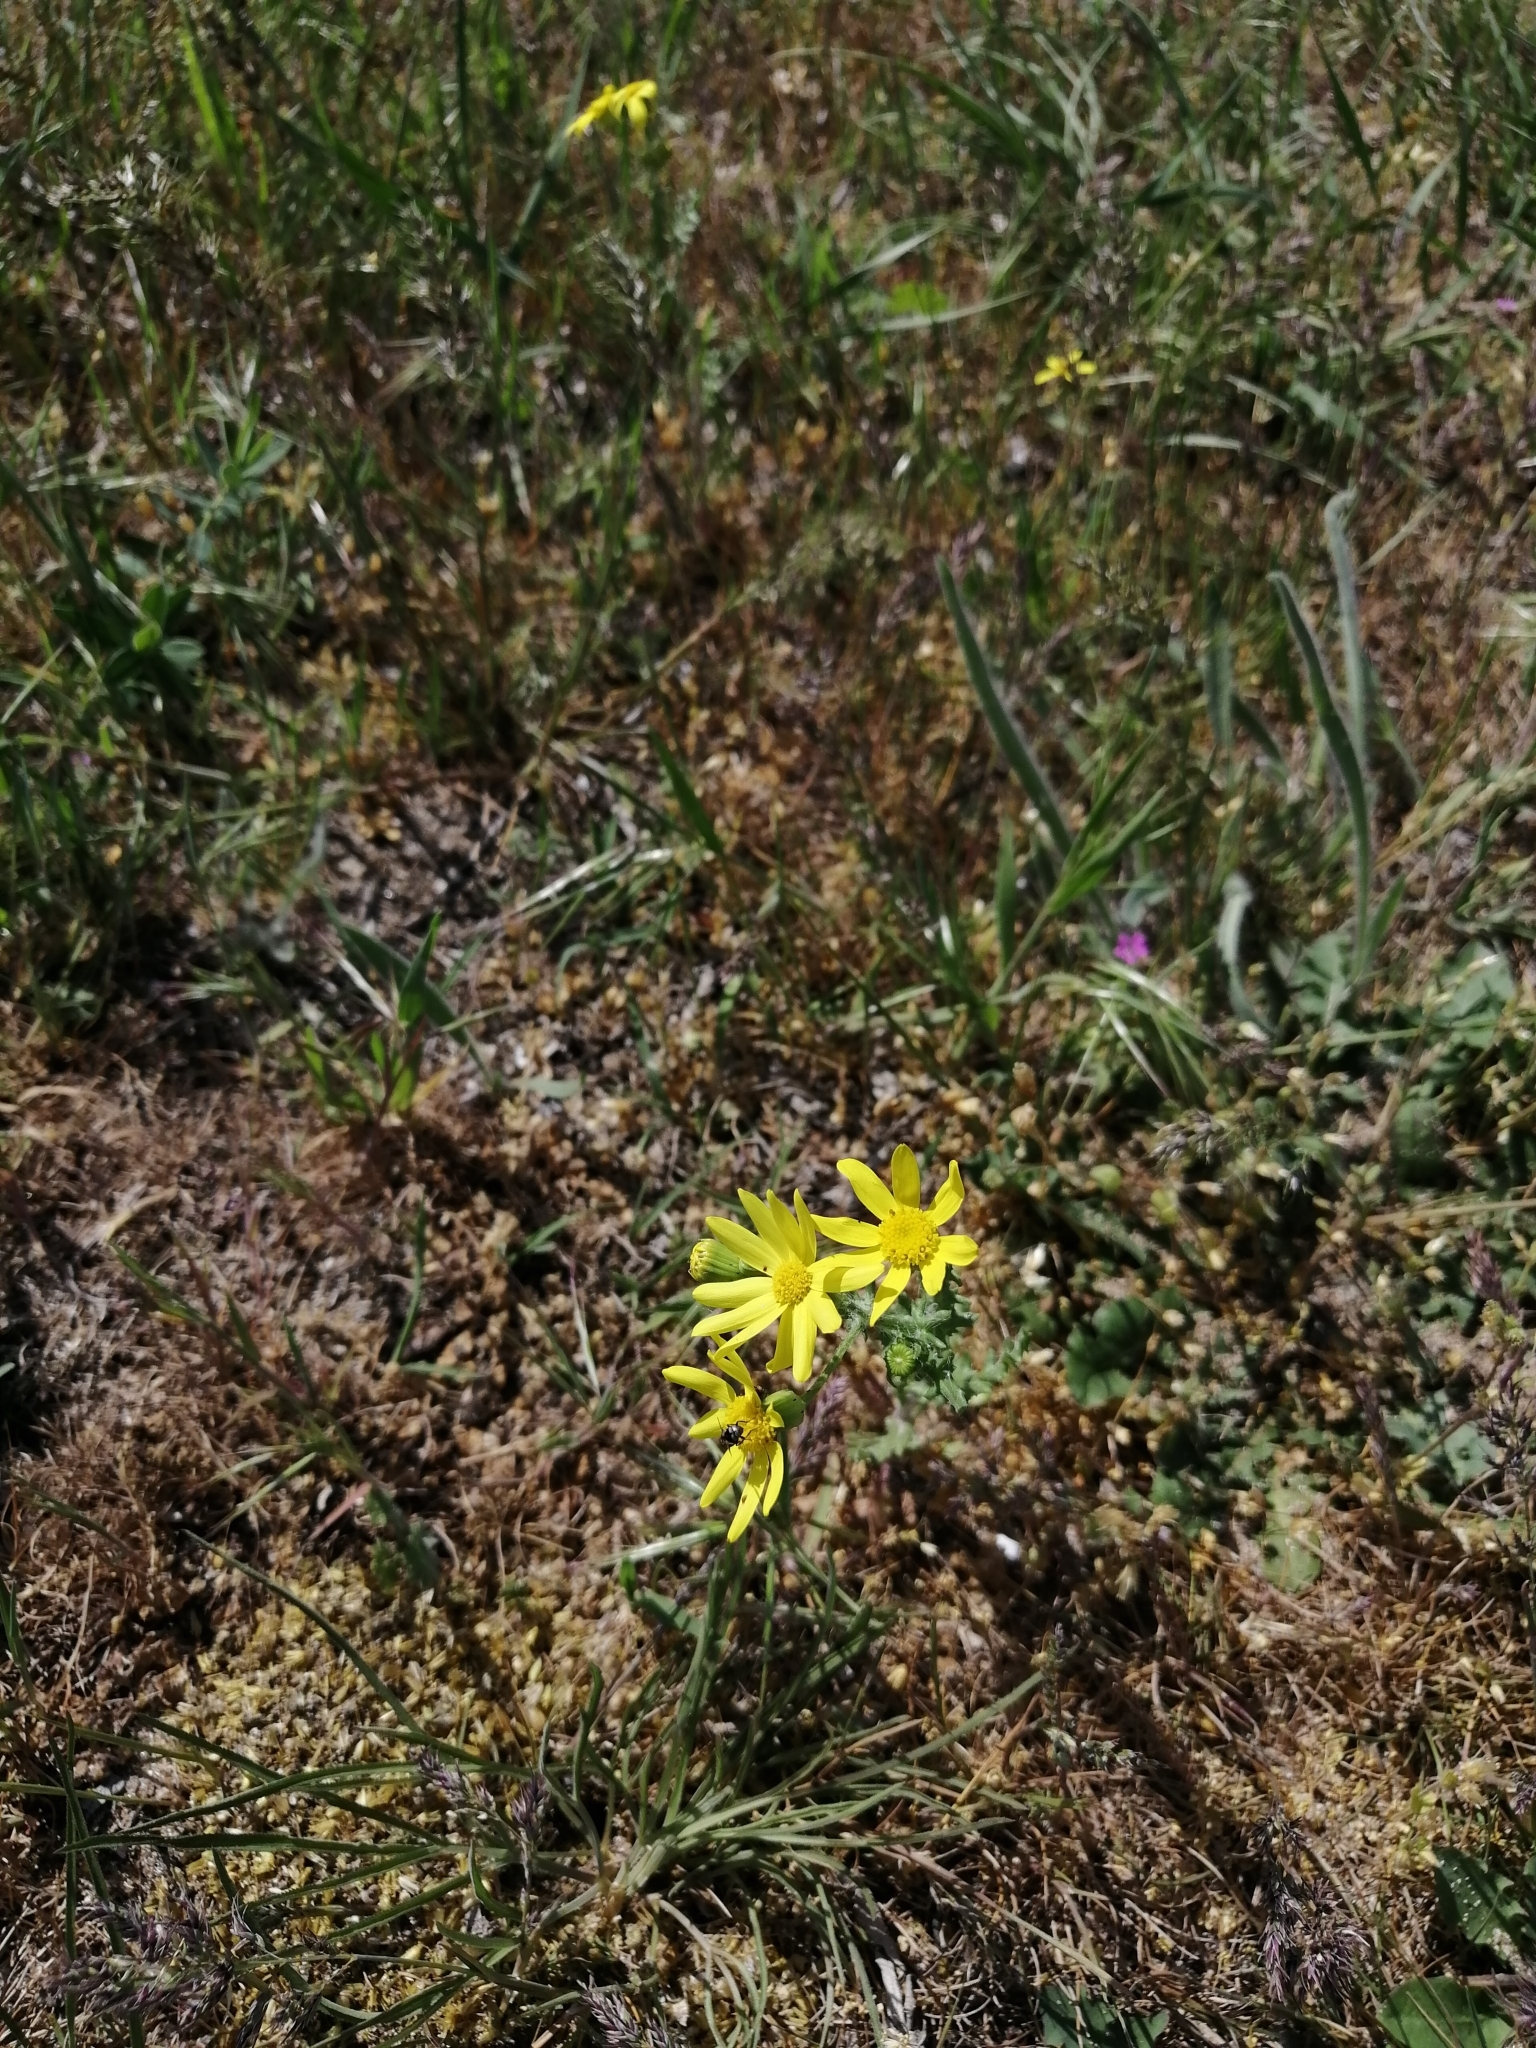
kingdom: Plantae
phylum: Tracheophyta
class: Magnoliopsida
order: Asterales
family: Asteraceae
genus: Senecio
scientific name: Senecio vernalis
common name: Eastern groundsel
